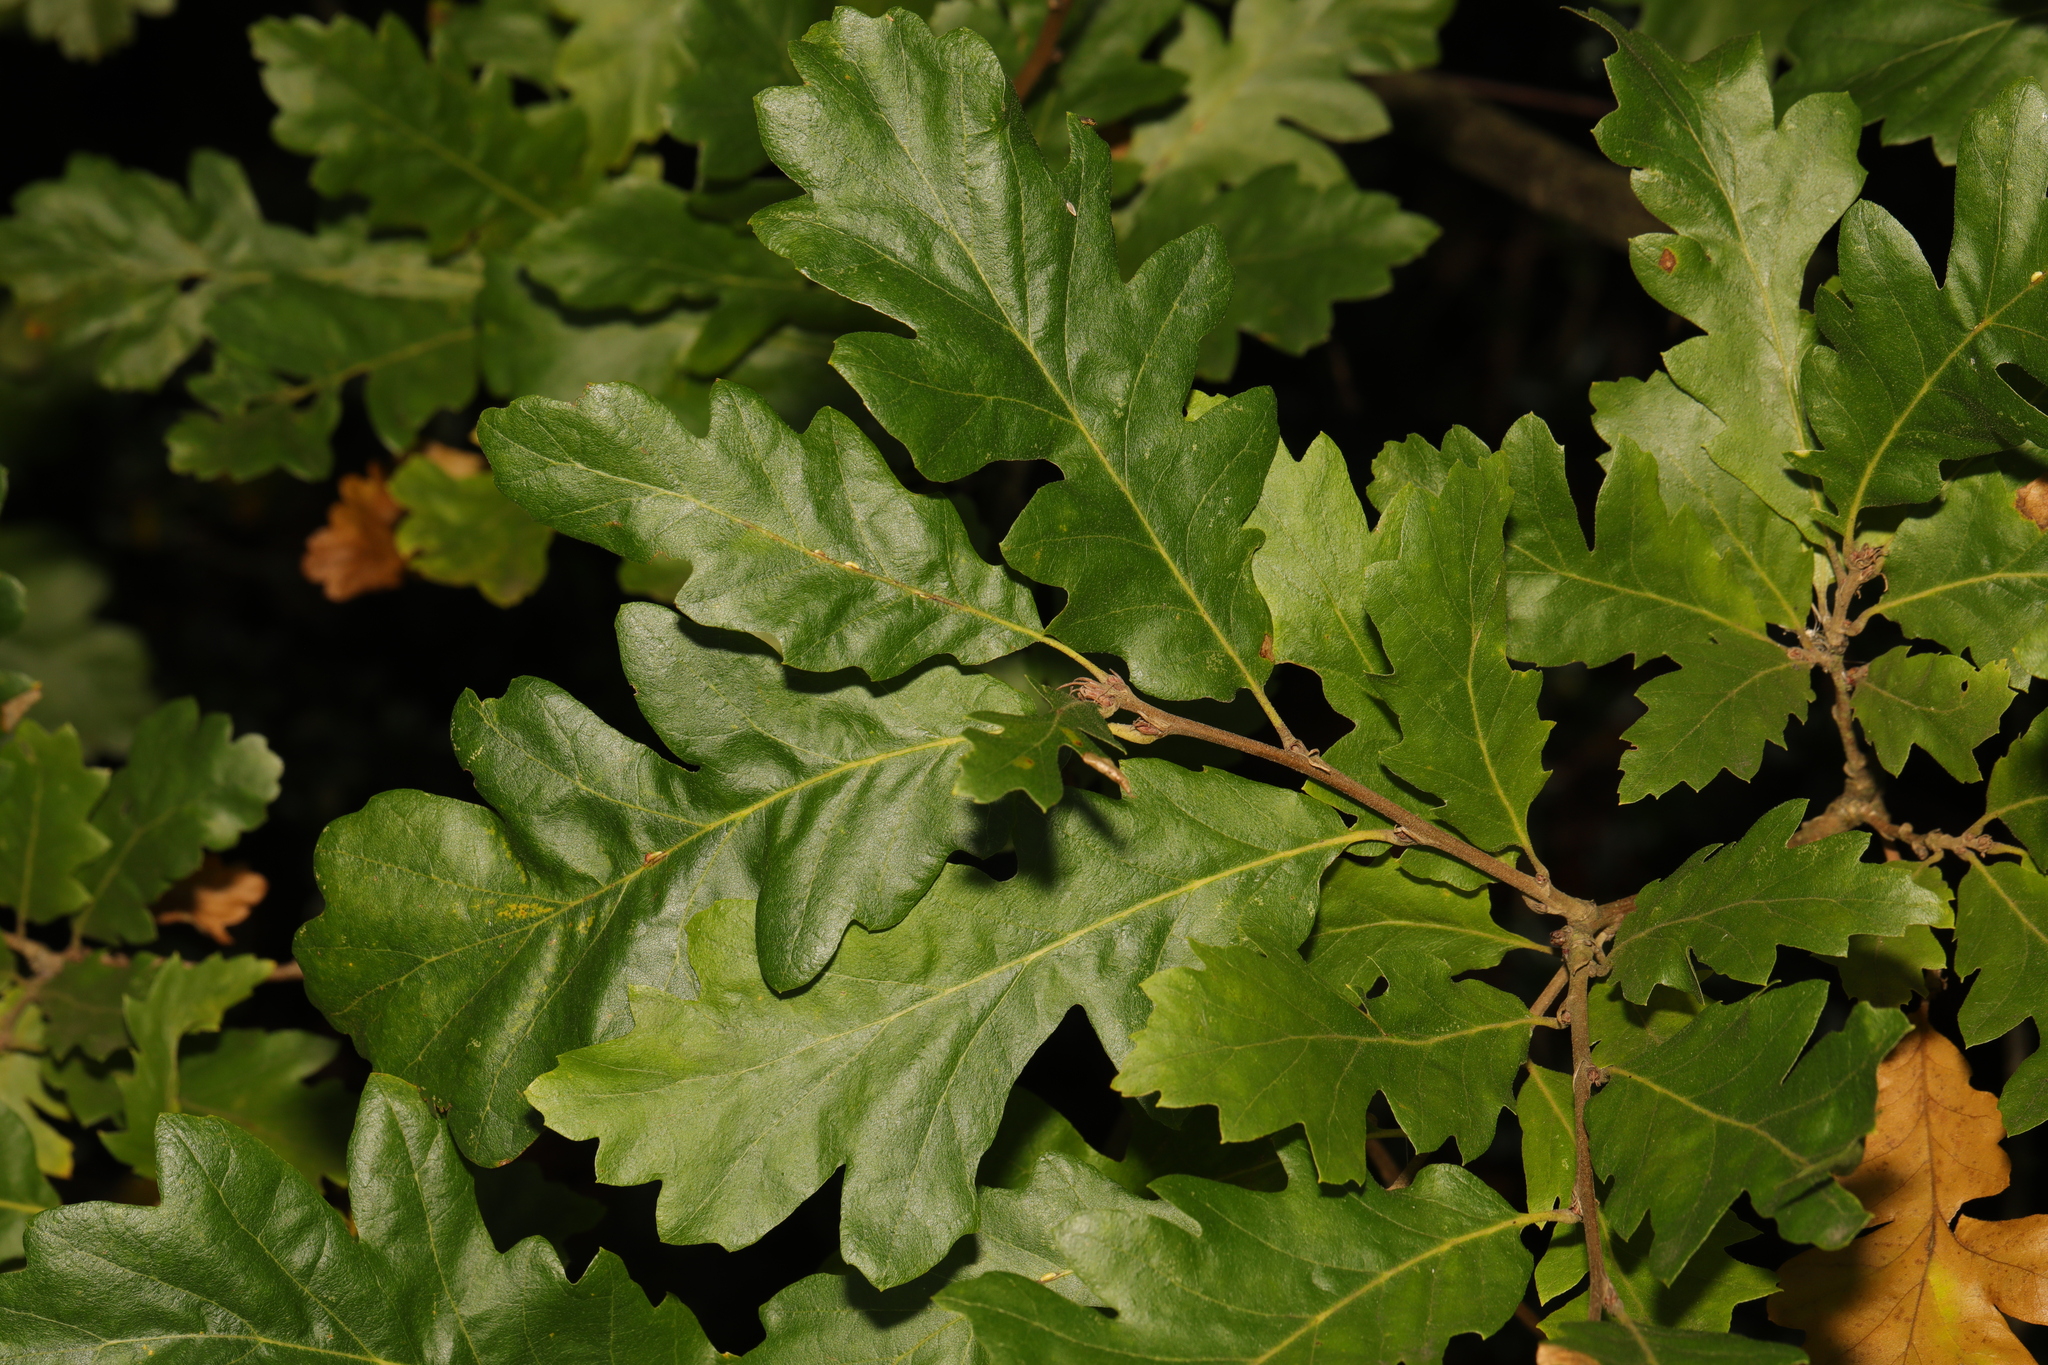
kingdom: Plantae
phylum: Tracheophyta
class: Magnoliopsida
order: Fagales
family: Fagaceae
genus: Quercus
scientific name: Quercus cerris
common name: Turkey oak
